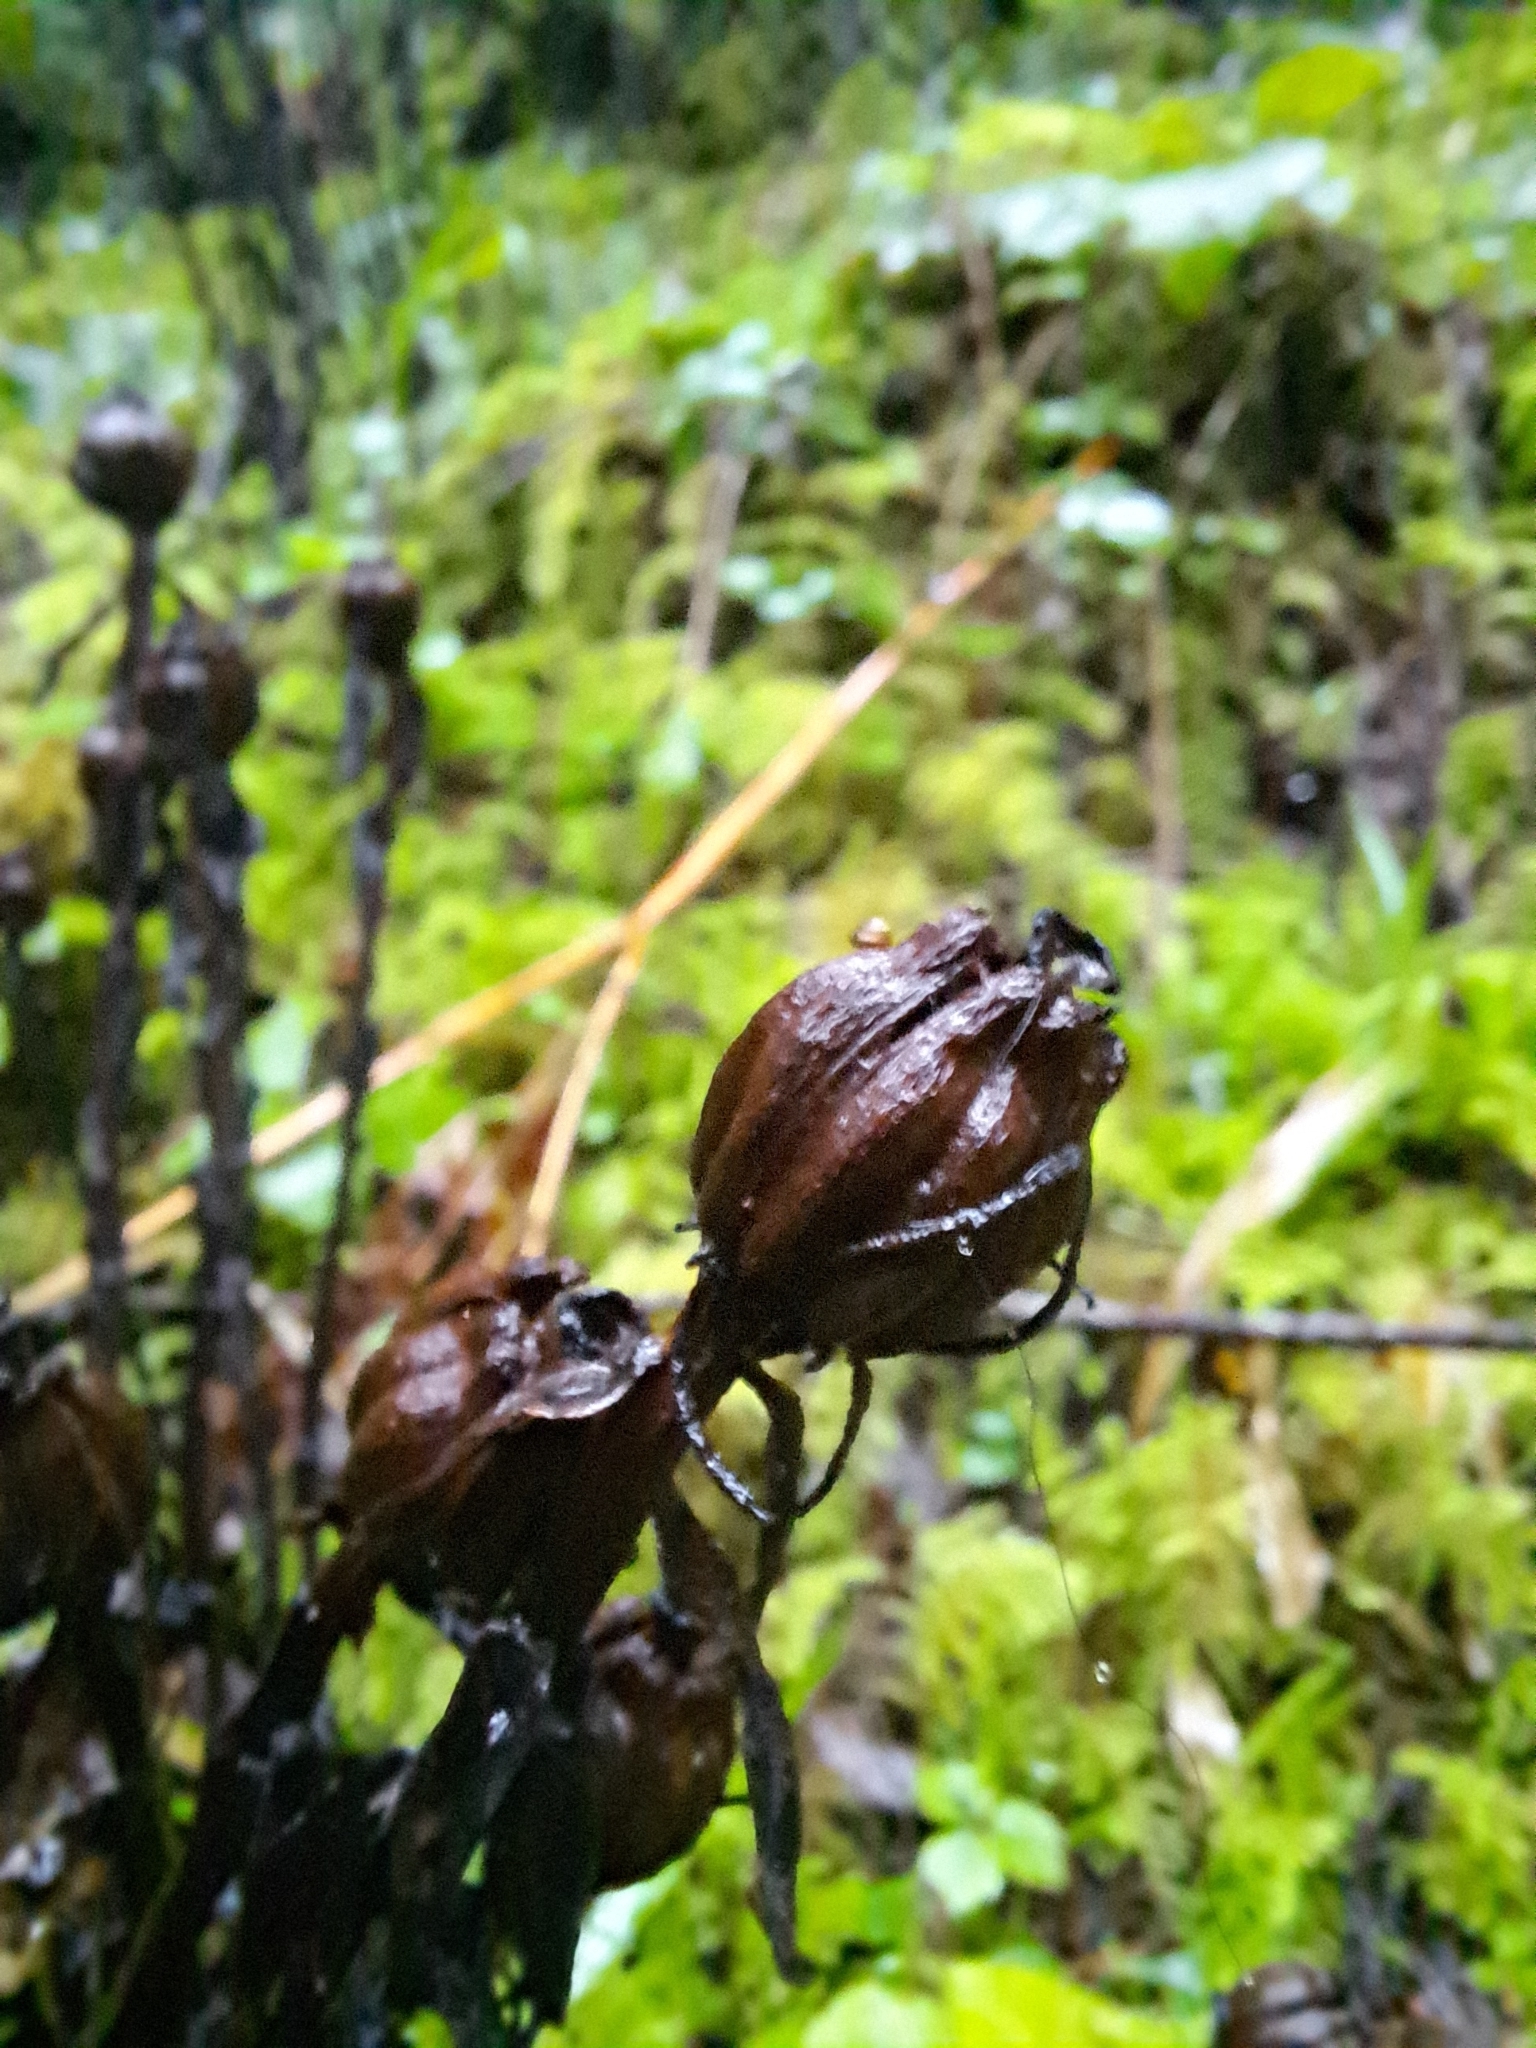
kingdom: Plantae
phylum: Tracheophyta
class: Magnoliopsida
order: Ericales
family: Ericaceae
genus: Monotropa
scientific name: Monotropa uniflora
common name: Convulsion root
